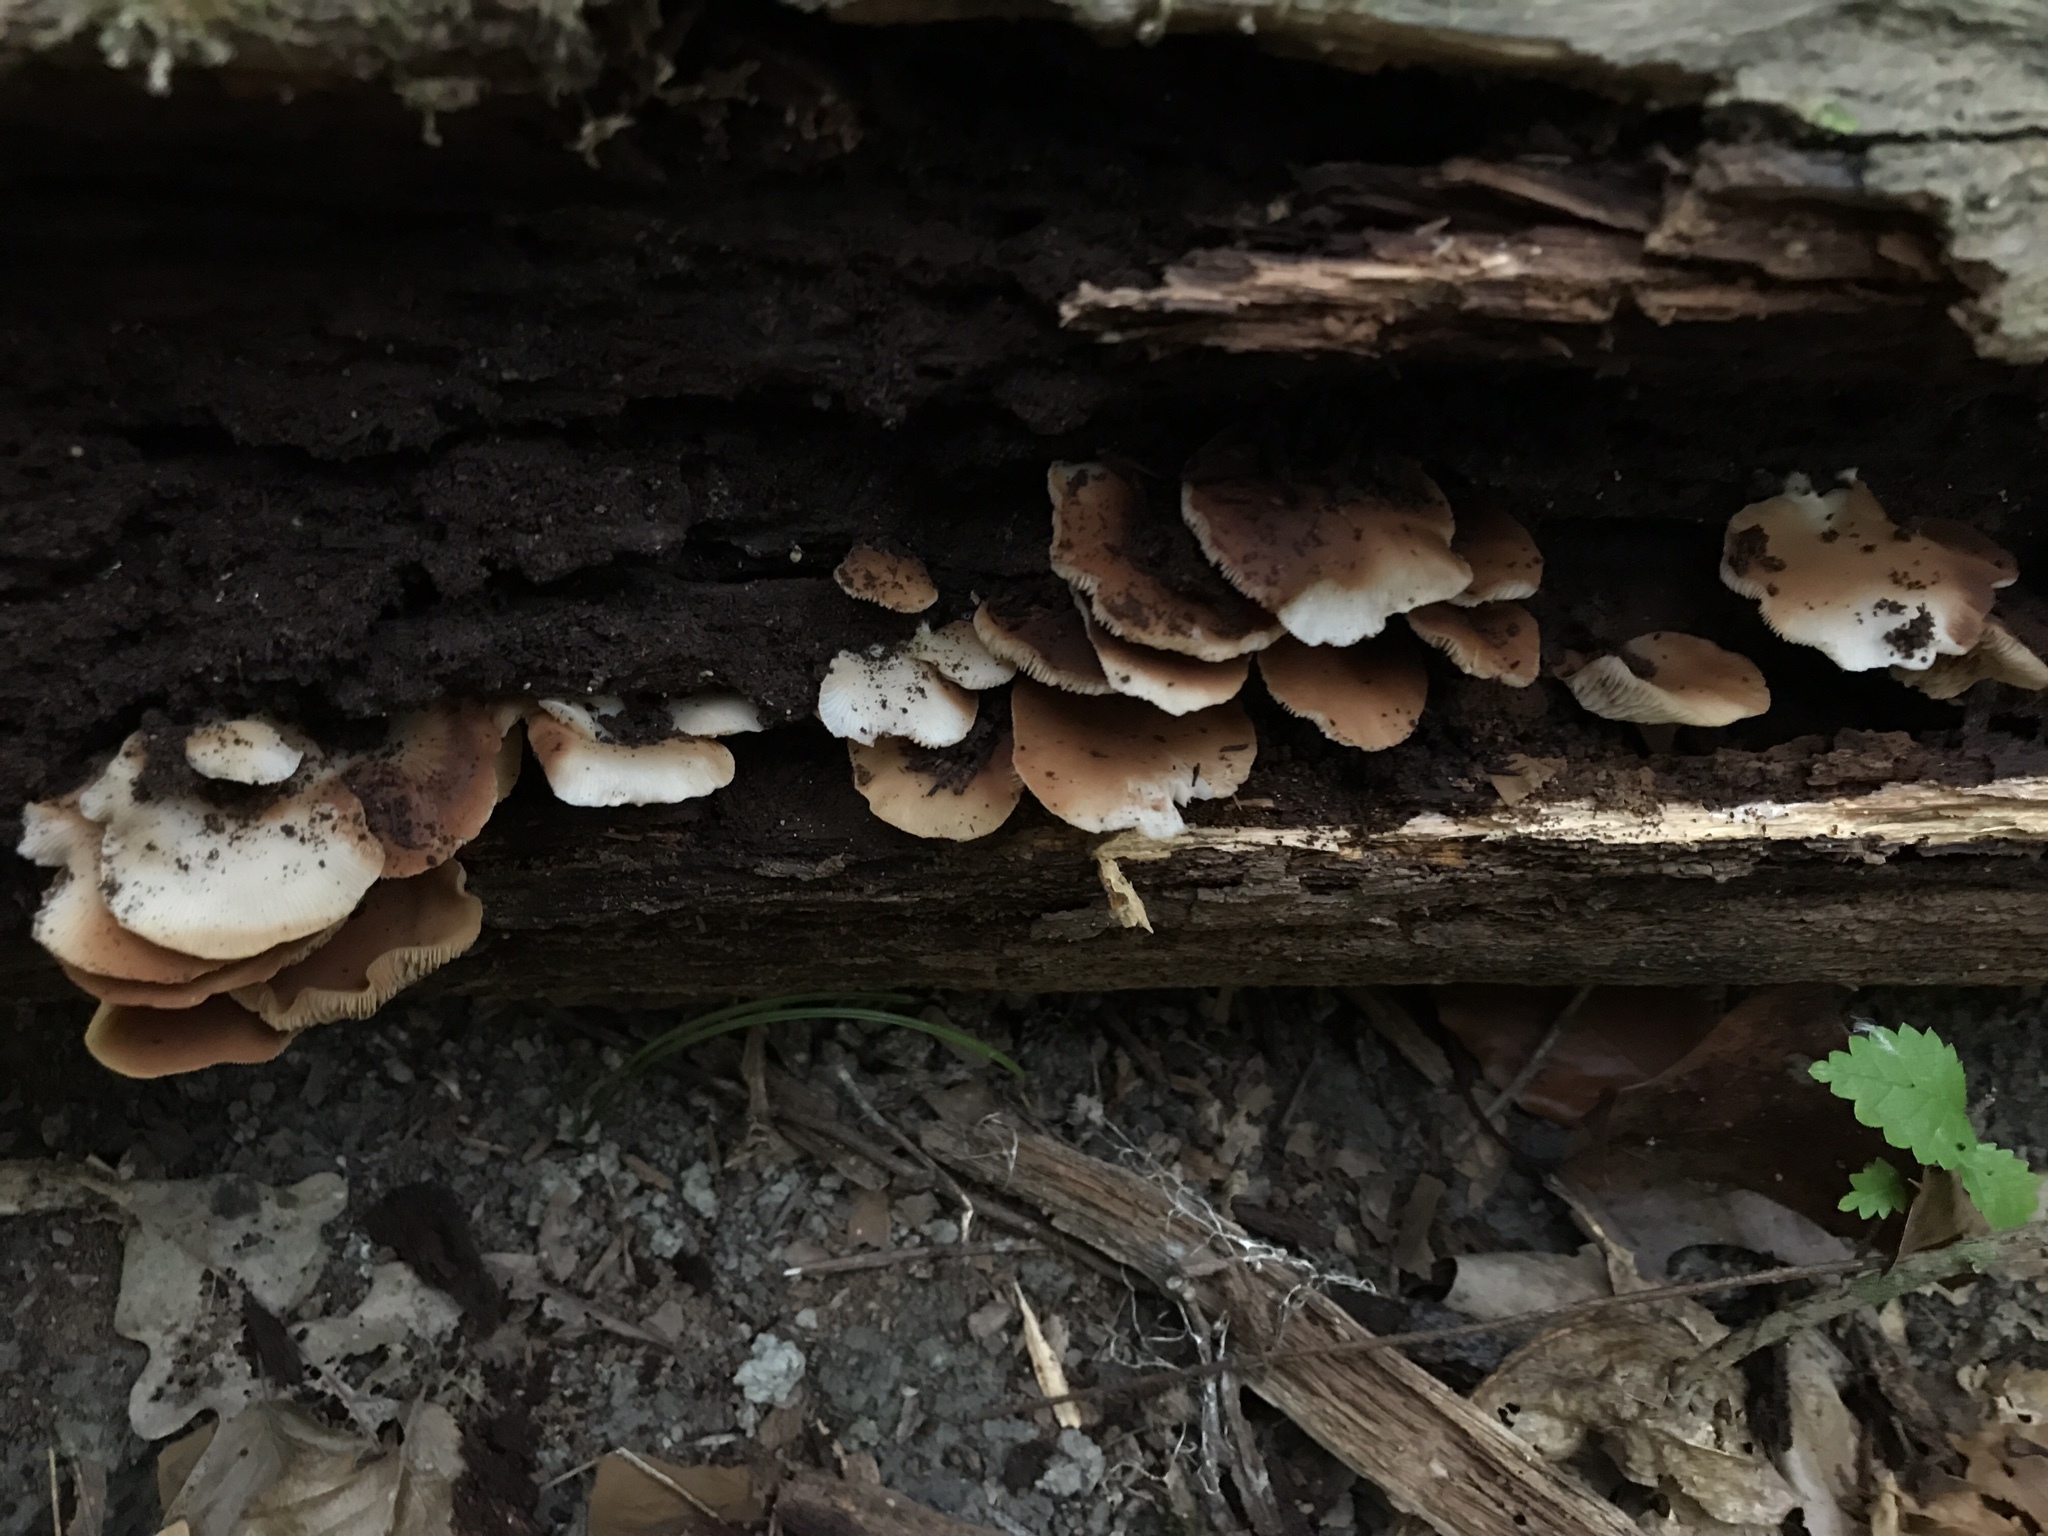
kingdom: Fungi
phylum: Basidiomycota
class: Agaricomycetes
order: Agaricales
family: Crepidotaceae
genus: Crepidotus
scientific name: Crepidotus applanatus
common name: Flat crep
